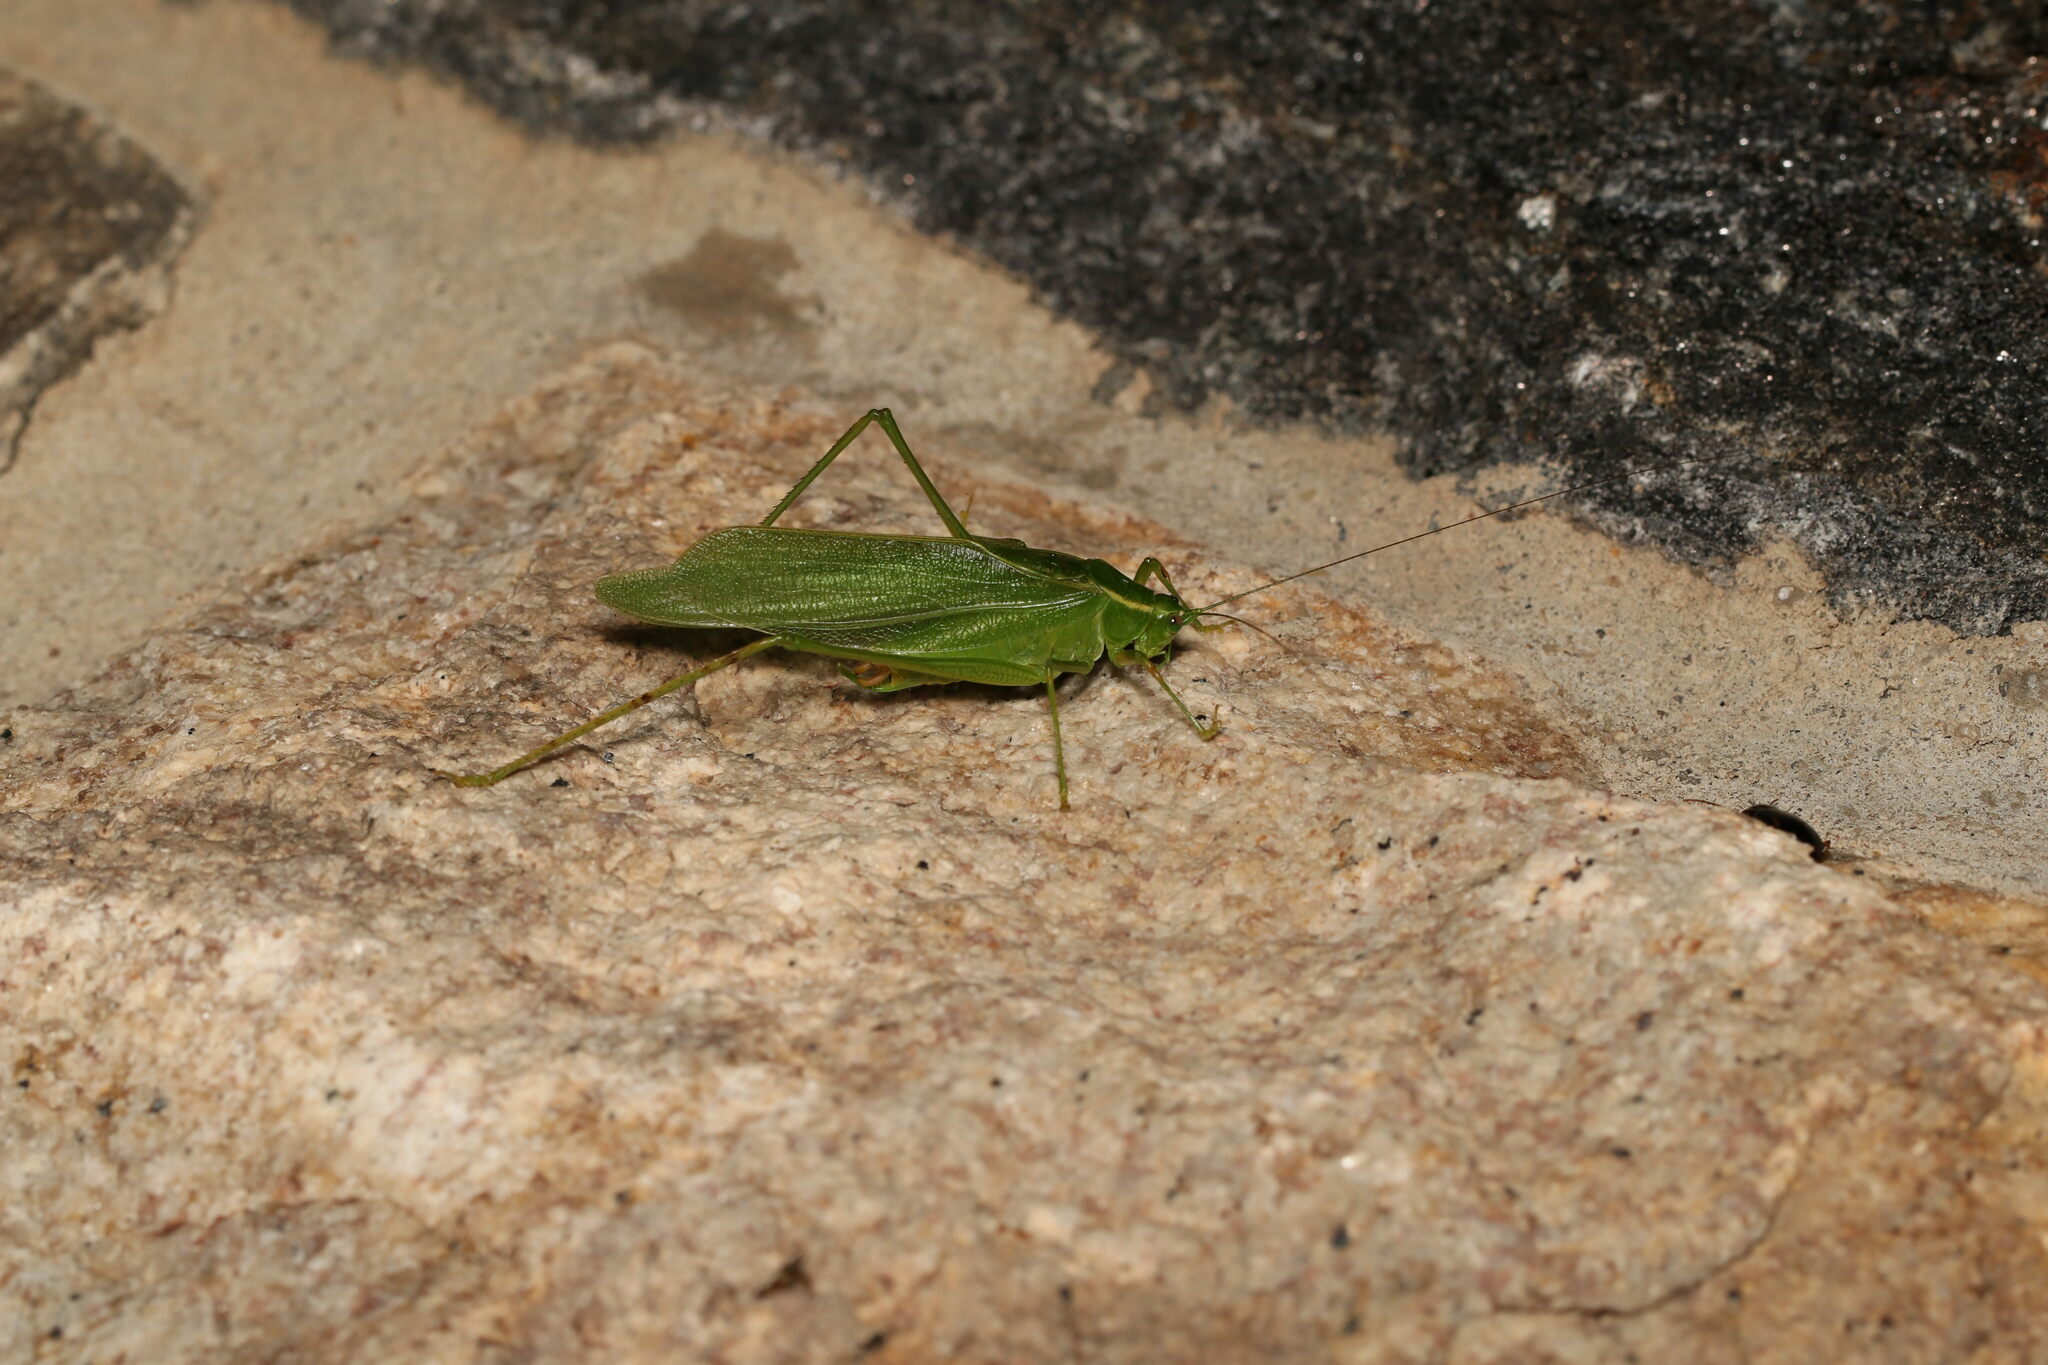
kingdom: Animalia
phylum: Arthropoda
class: Insecta
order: Orthoptera
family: Tettigoniidae
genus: Scudderia
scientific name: Scudderia septentrionalis
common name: Northern bush-katydid
